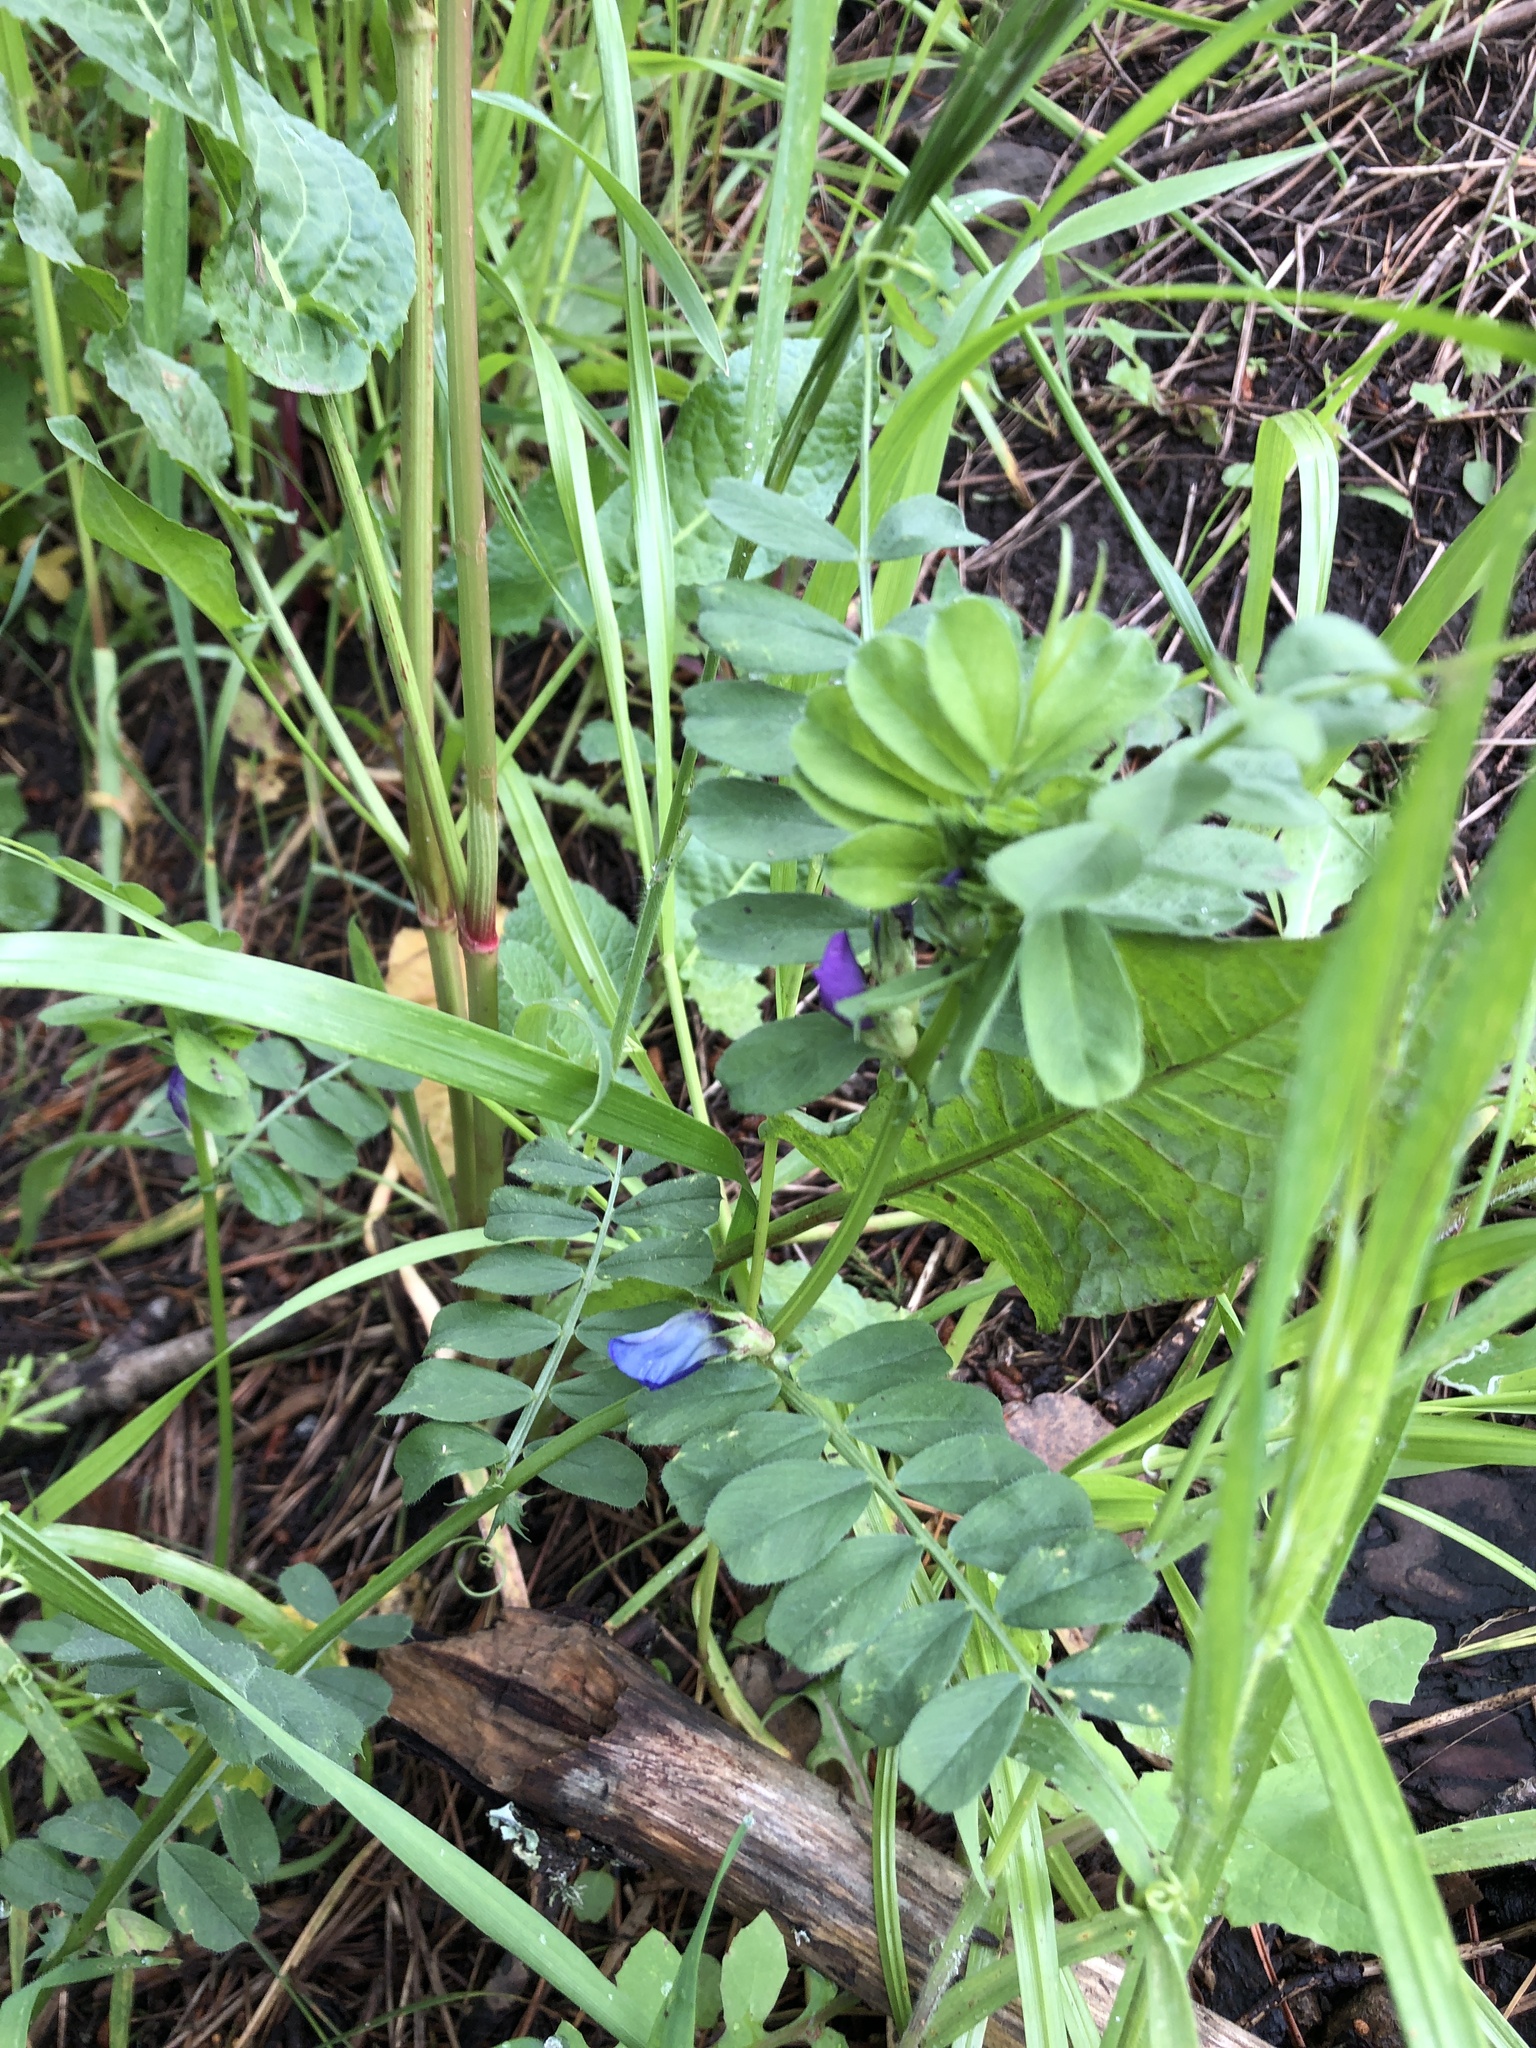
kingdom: Plantae
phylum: Tracheophyta
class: Magnoliopsida
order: Fabales
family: Fabaceae
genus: Vicia
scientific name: Vicia sativa
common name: Garden vetch
